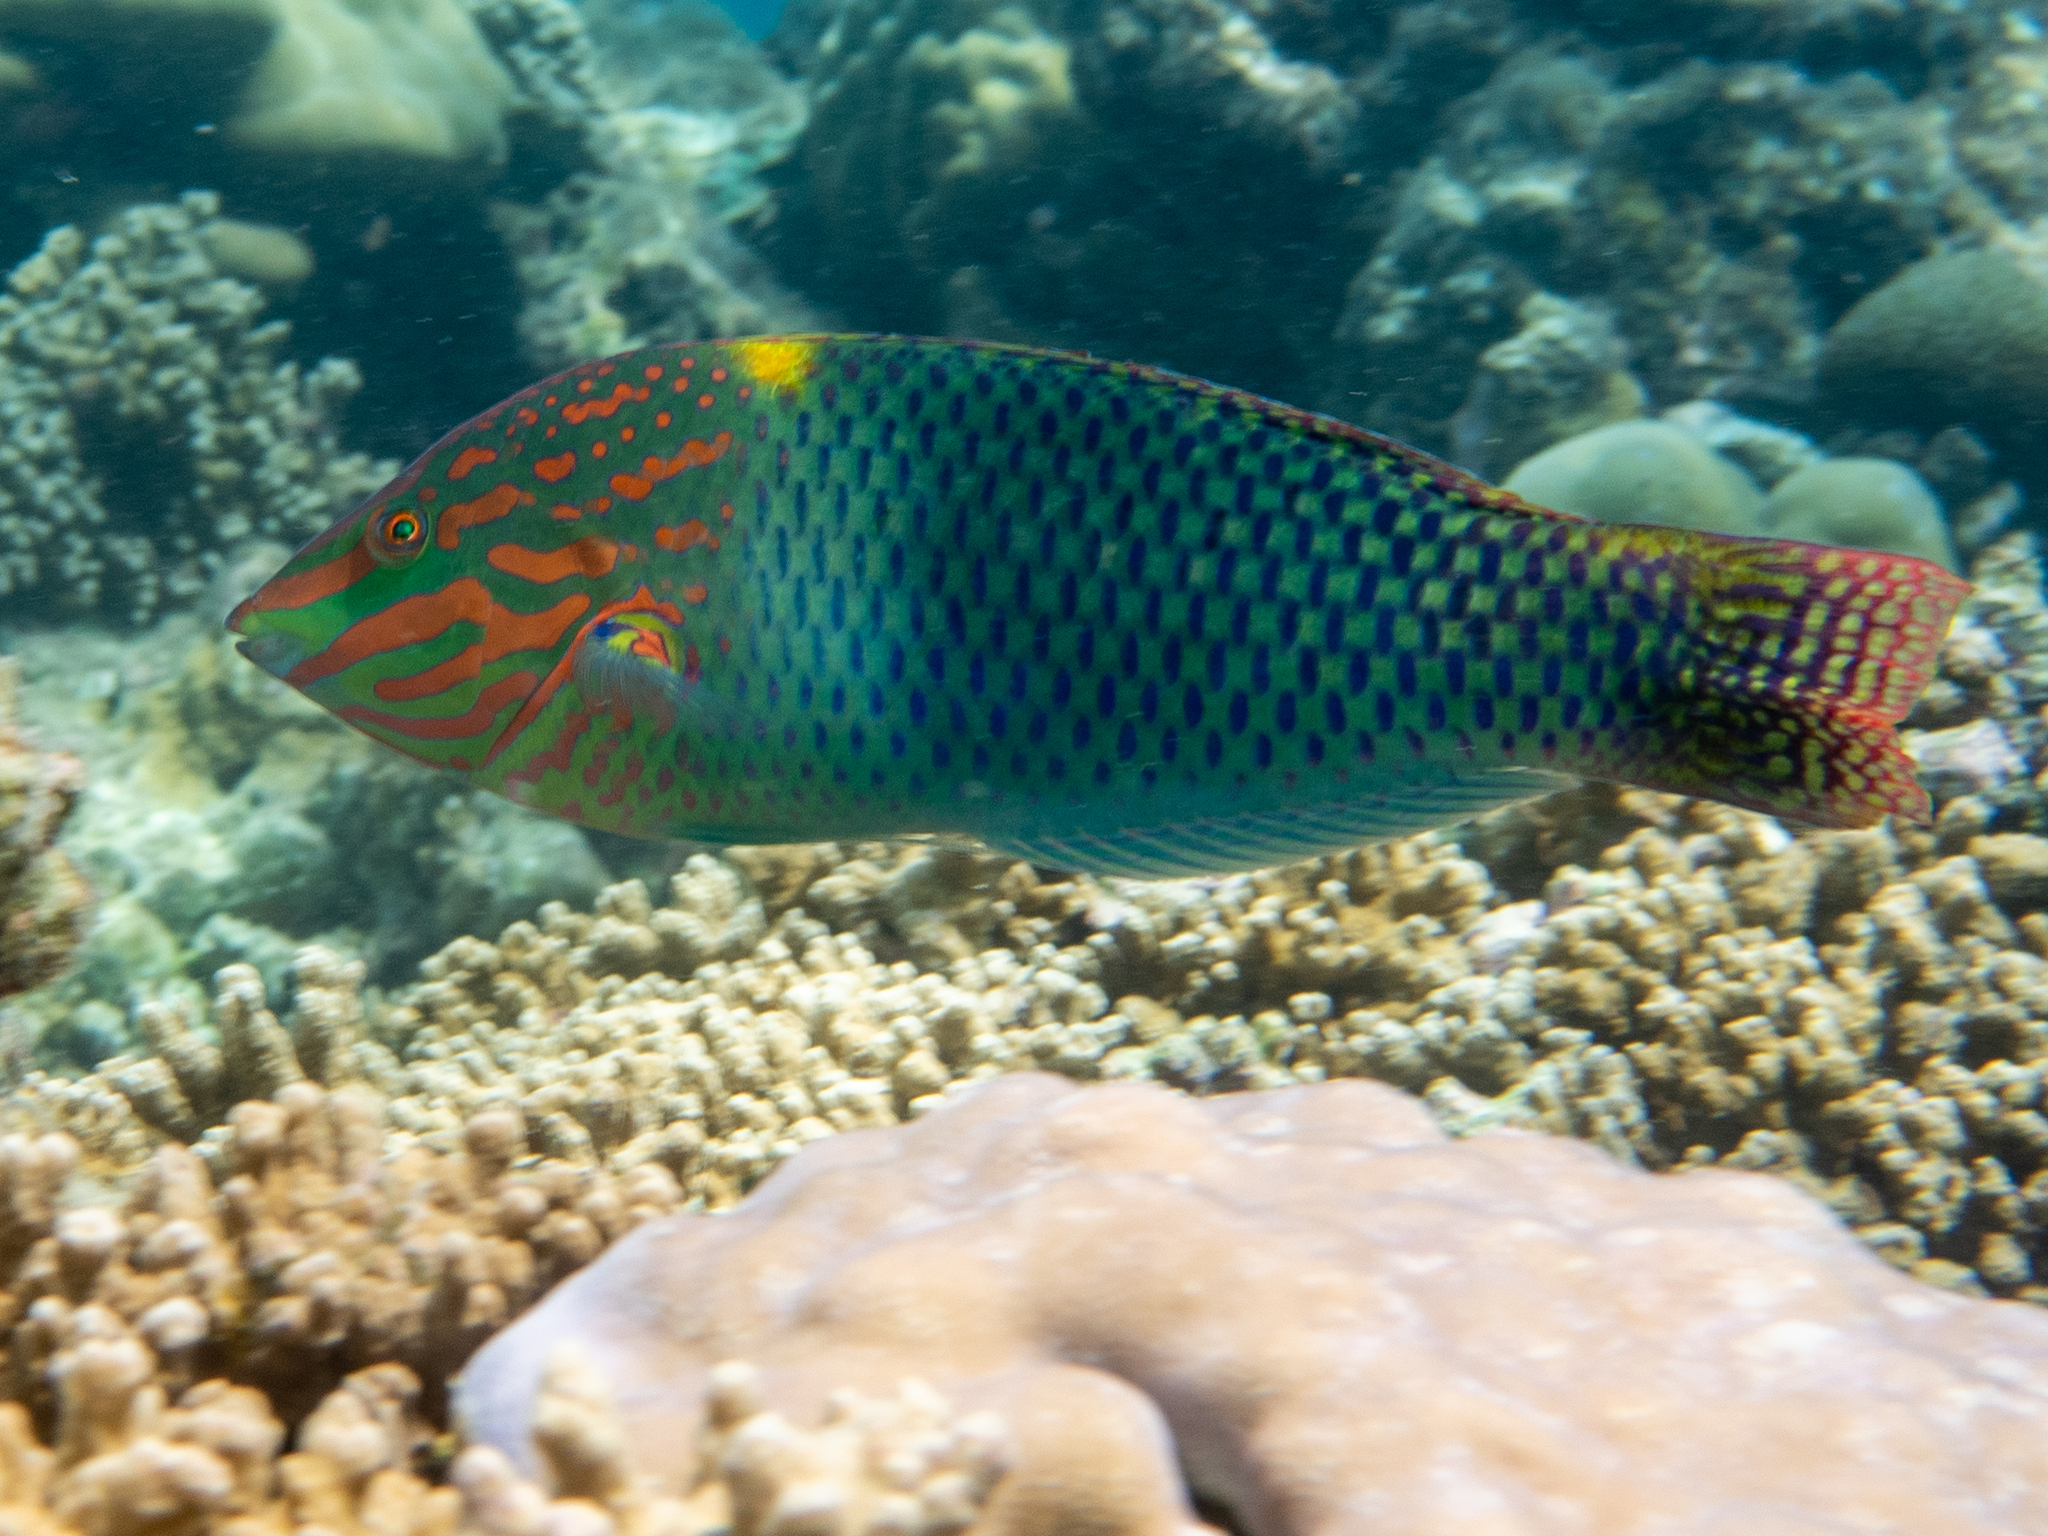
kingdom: Animalia
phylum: Chordata
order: Perciformes
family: Labridae
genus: Halichoeres
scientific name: Halichoeres hortulanus
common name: Checkerboard wrasse
